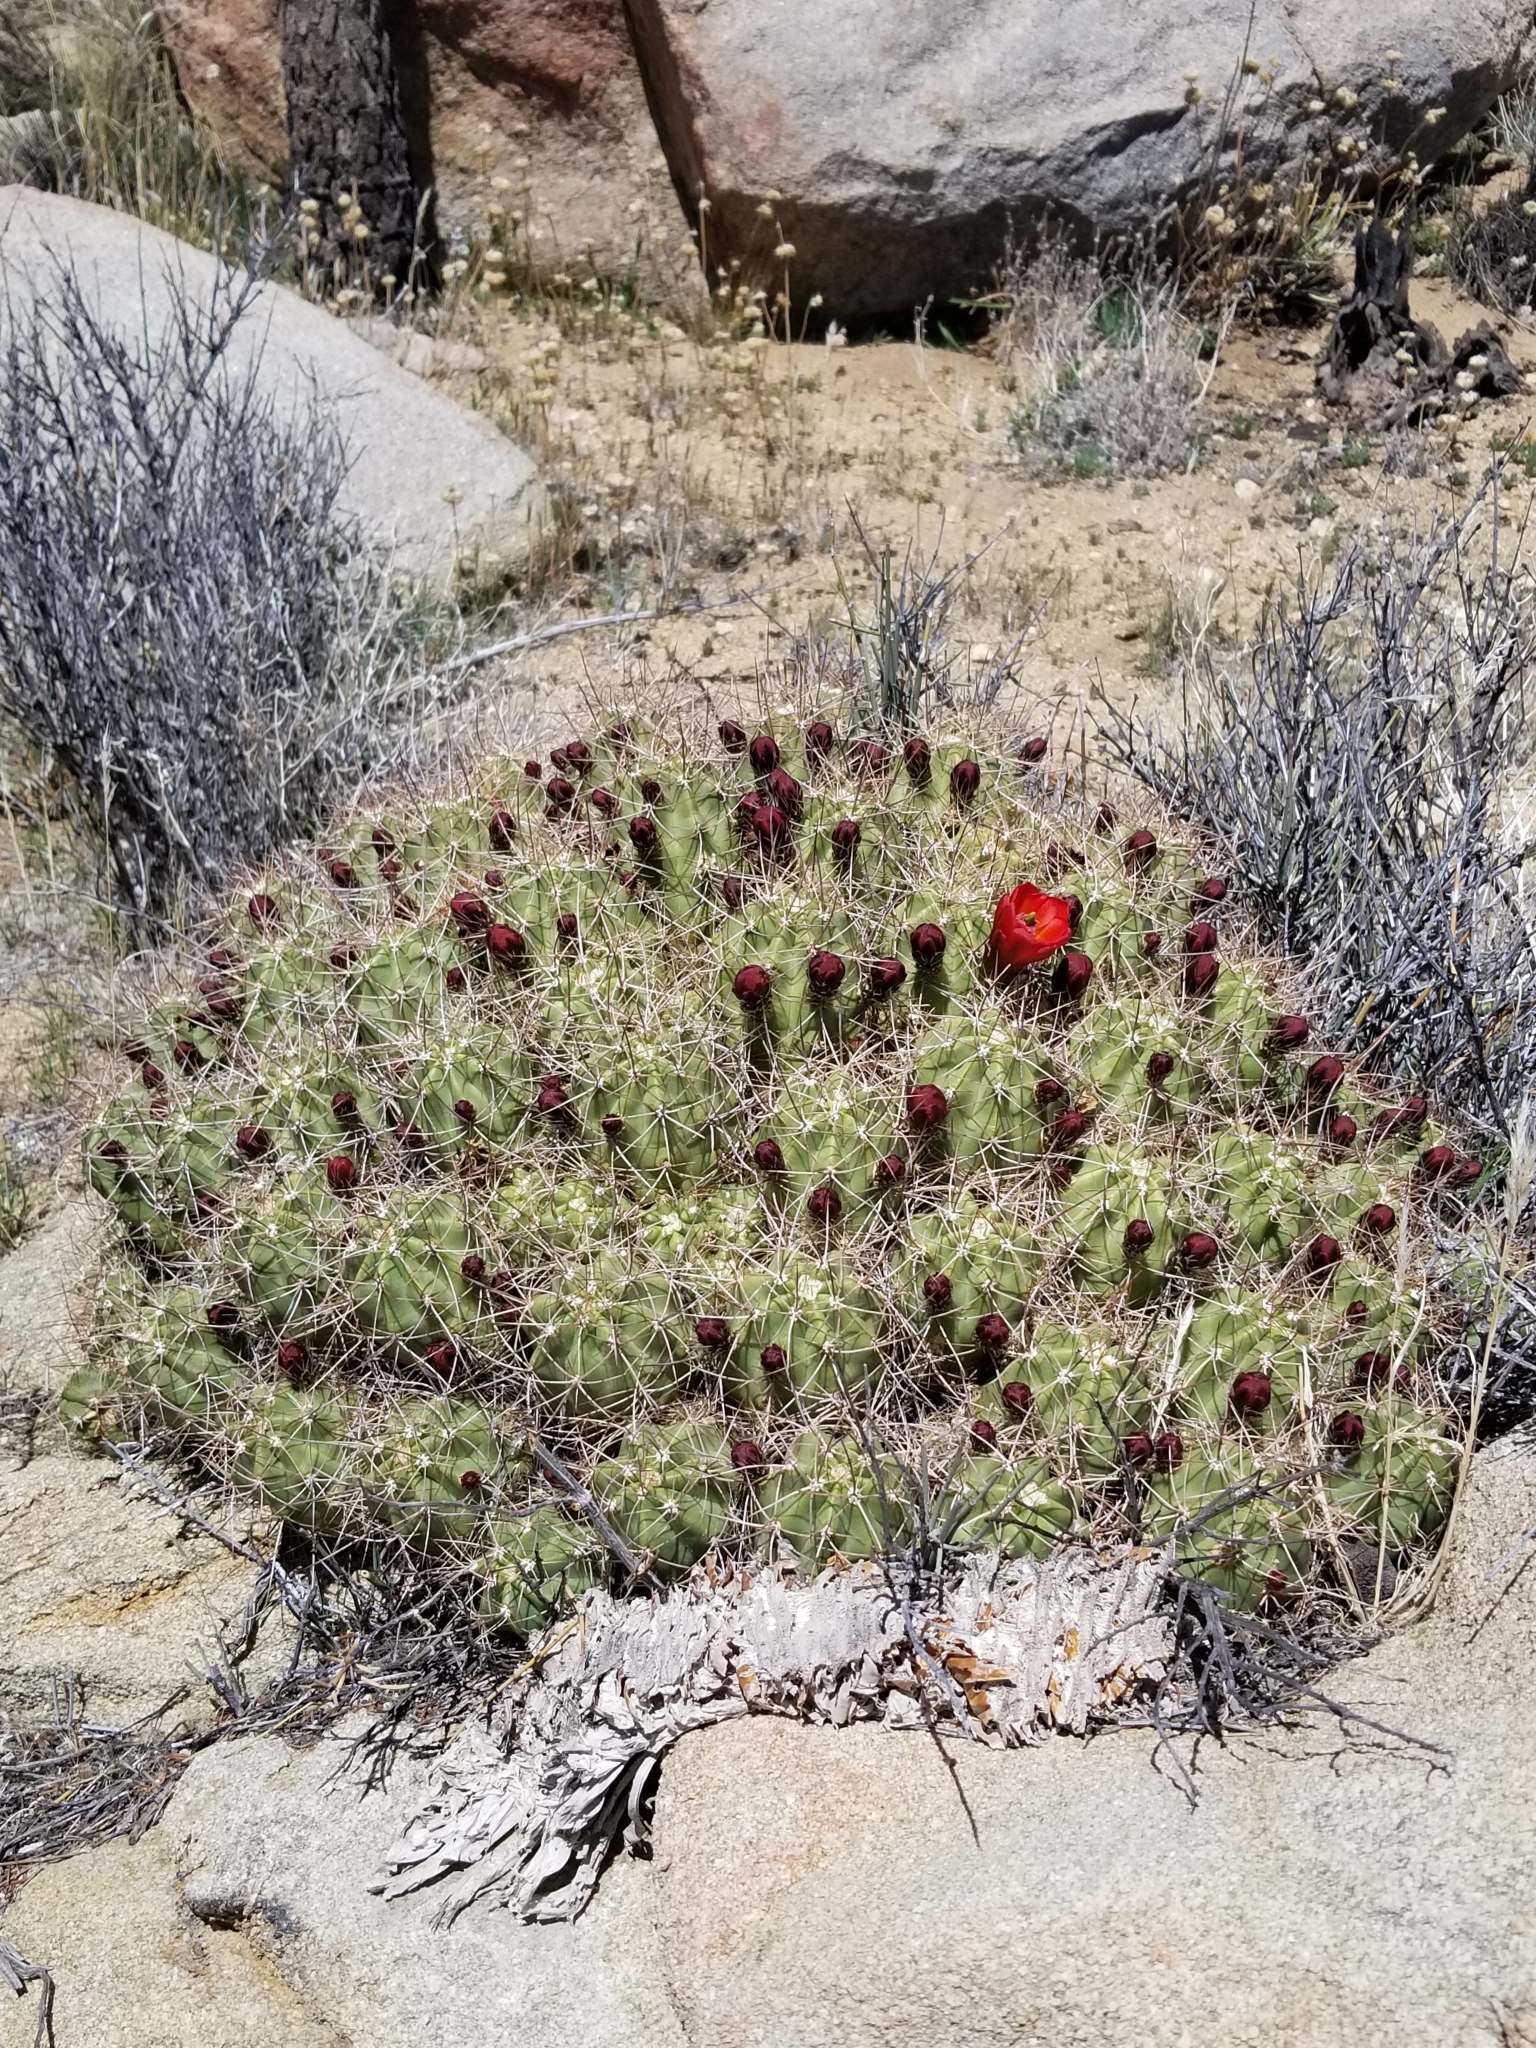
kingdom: Plantae
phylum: Tracheophyta
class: Magnoliopsida
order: Caryophyllales
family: Cactaceae
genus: Echinocereus
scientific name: Echinocereus triglochidiatus
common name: Claretcup hedgehog
